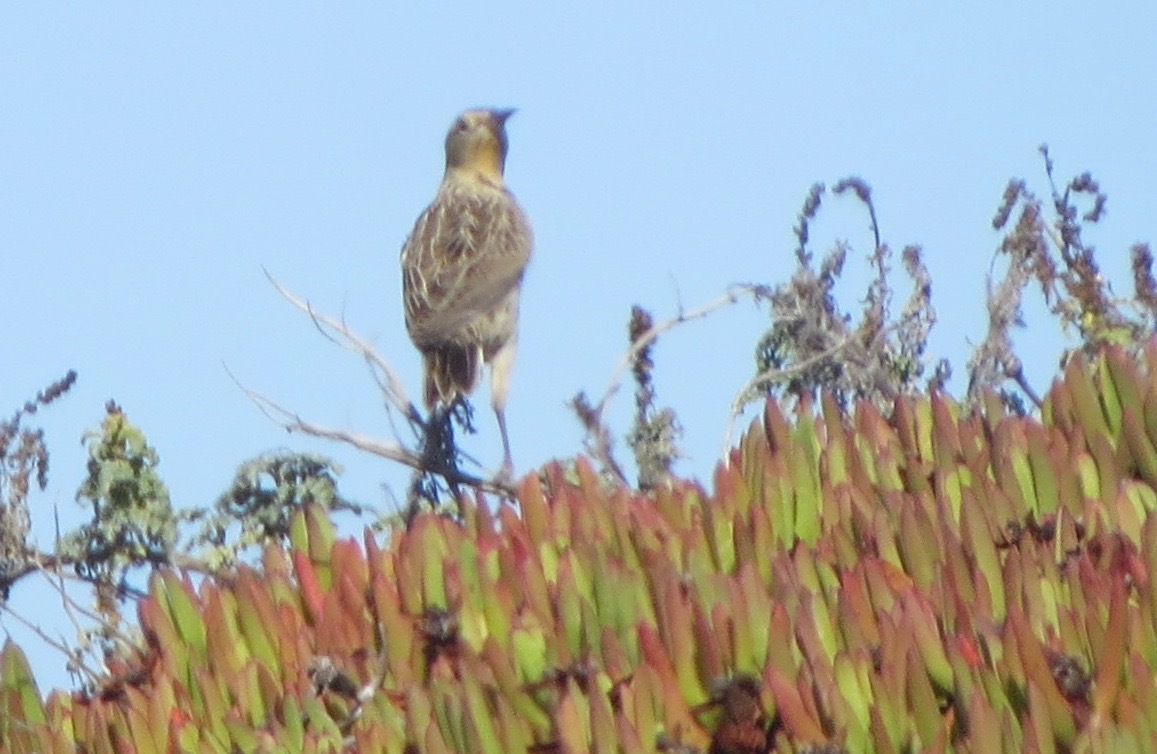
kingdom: Animalia
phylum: Chordata
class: Aves
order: Passeriformes
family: Icteridae
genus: Sturnella
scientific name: Sturnella neglecta
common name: Western meadowlark
